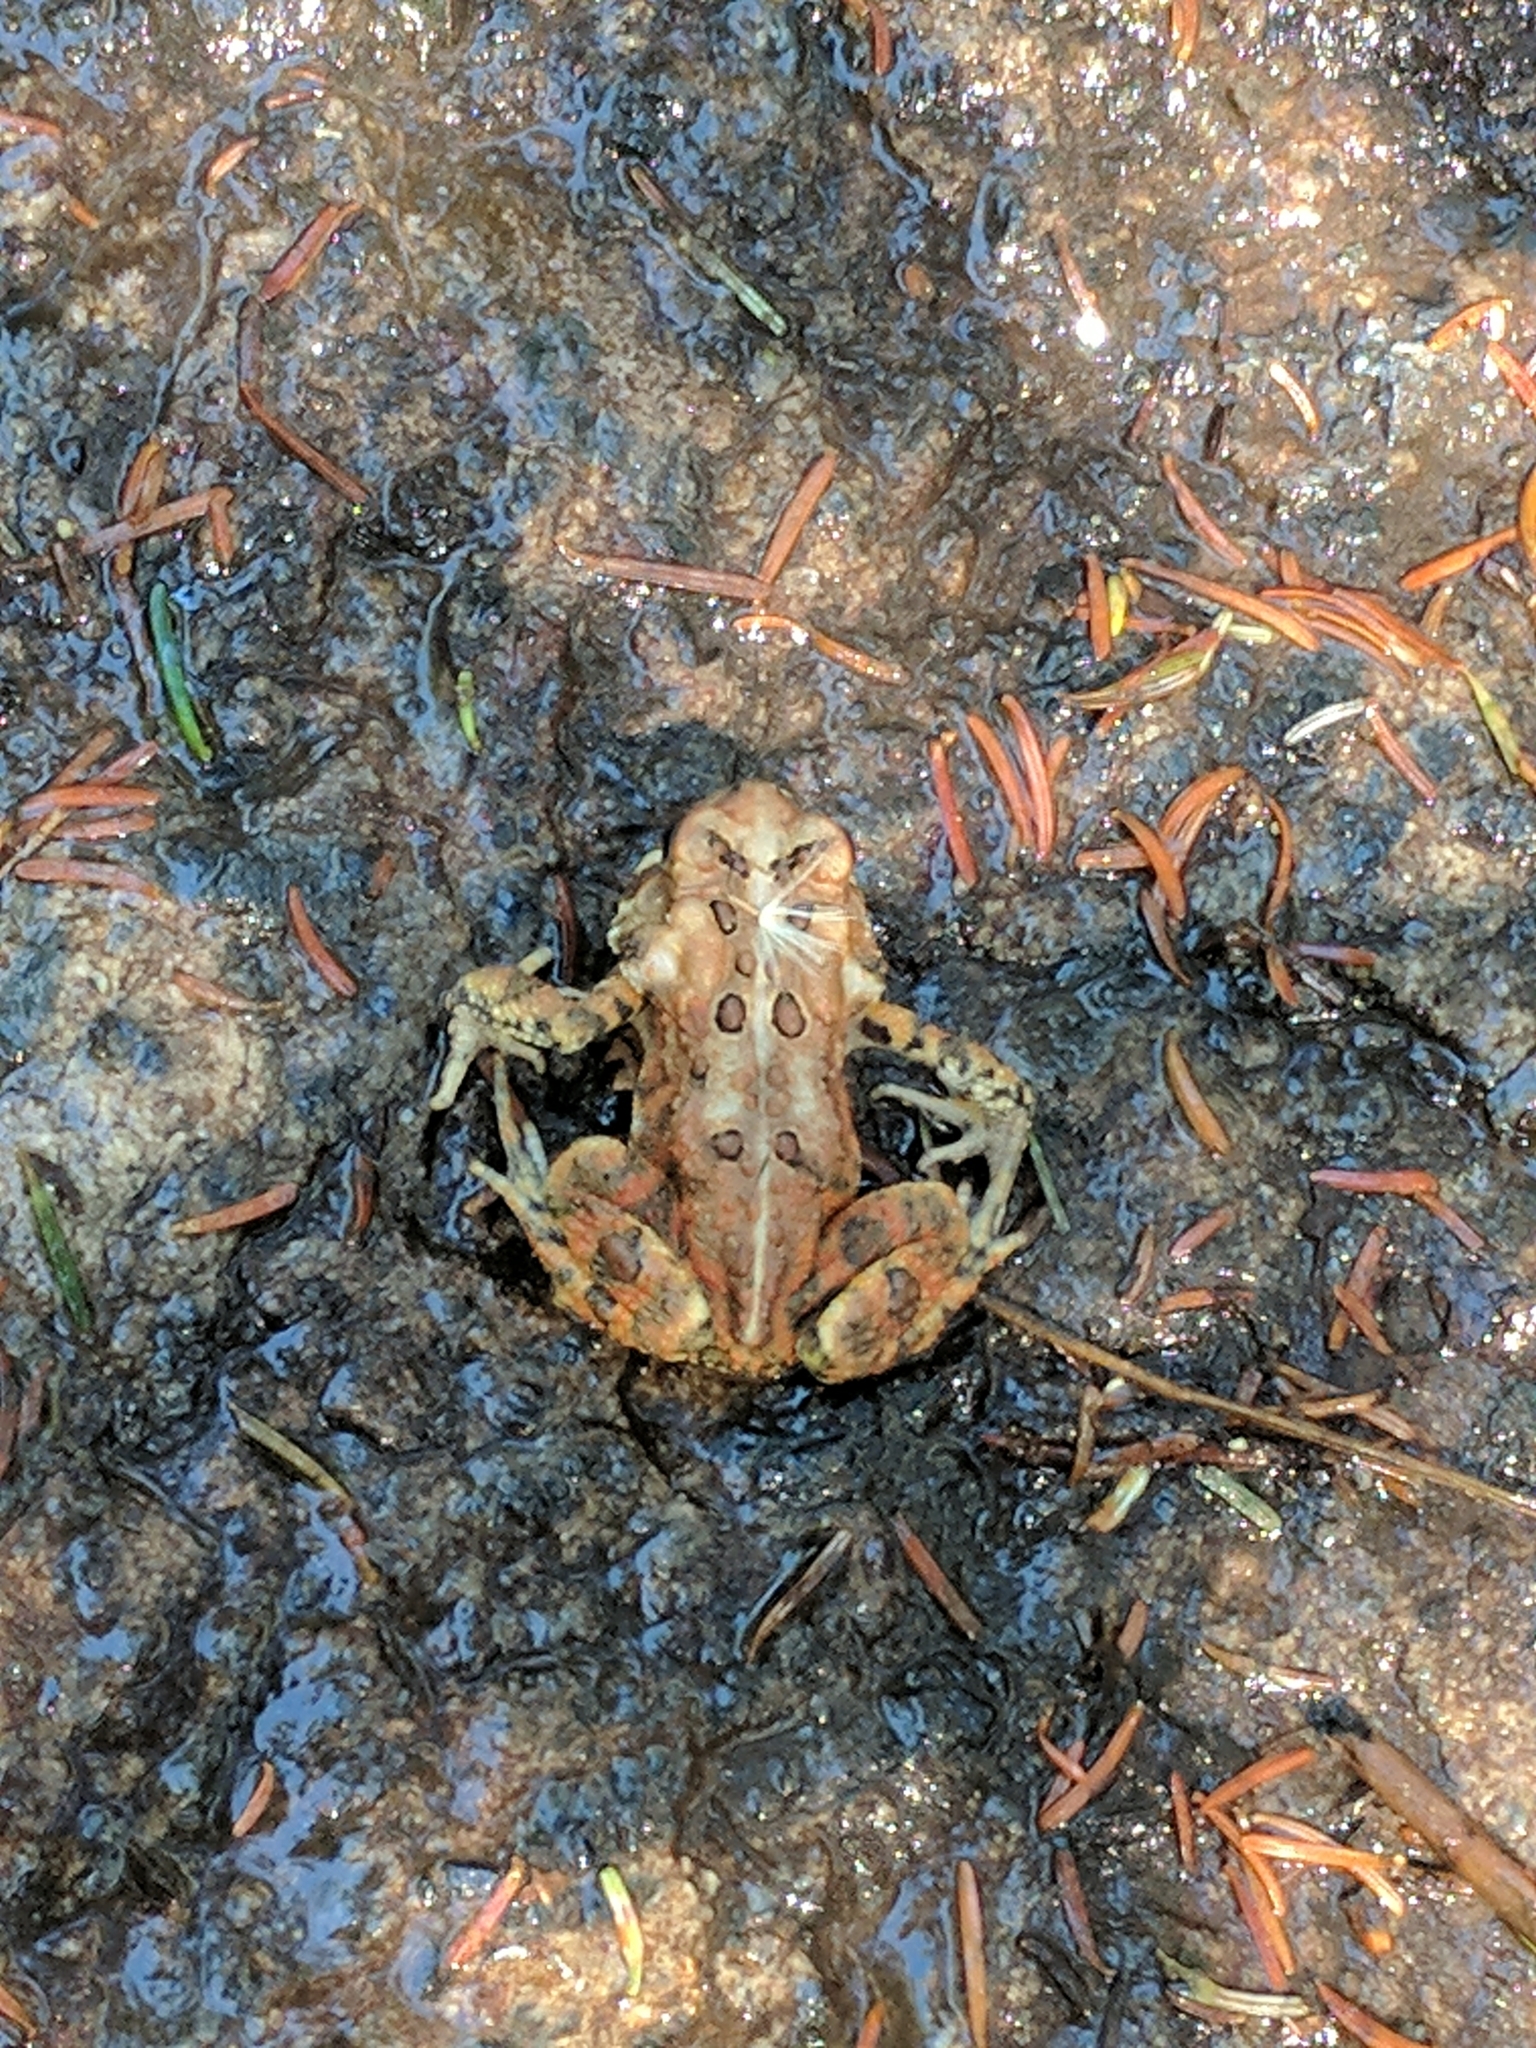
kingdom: Animalia
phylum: Chordata
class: Amphibia
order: Anura
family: Bufonidae
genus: Anaxyrus
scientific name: Anaxyrus americanus
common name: American toad
